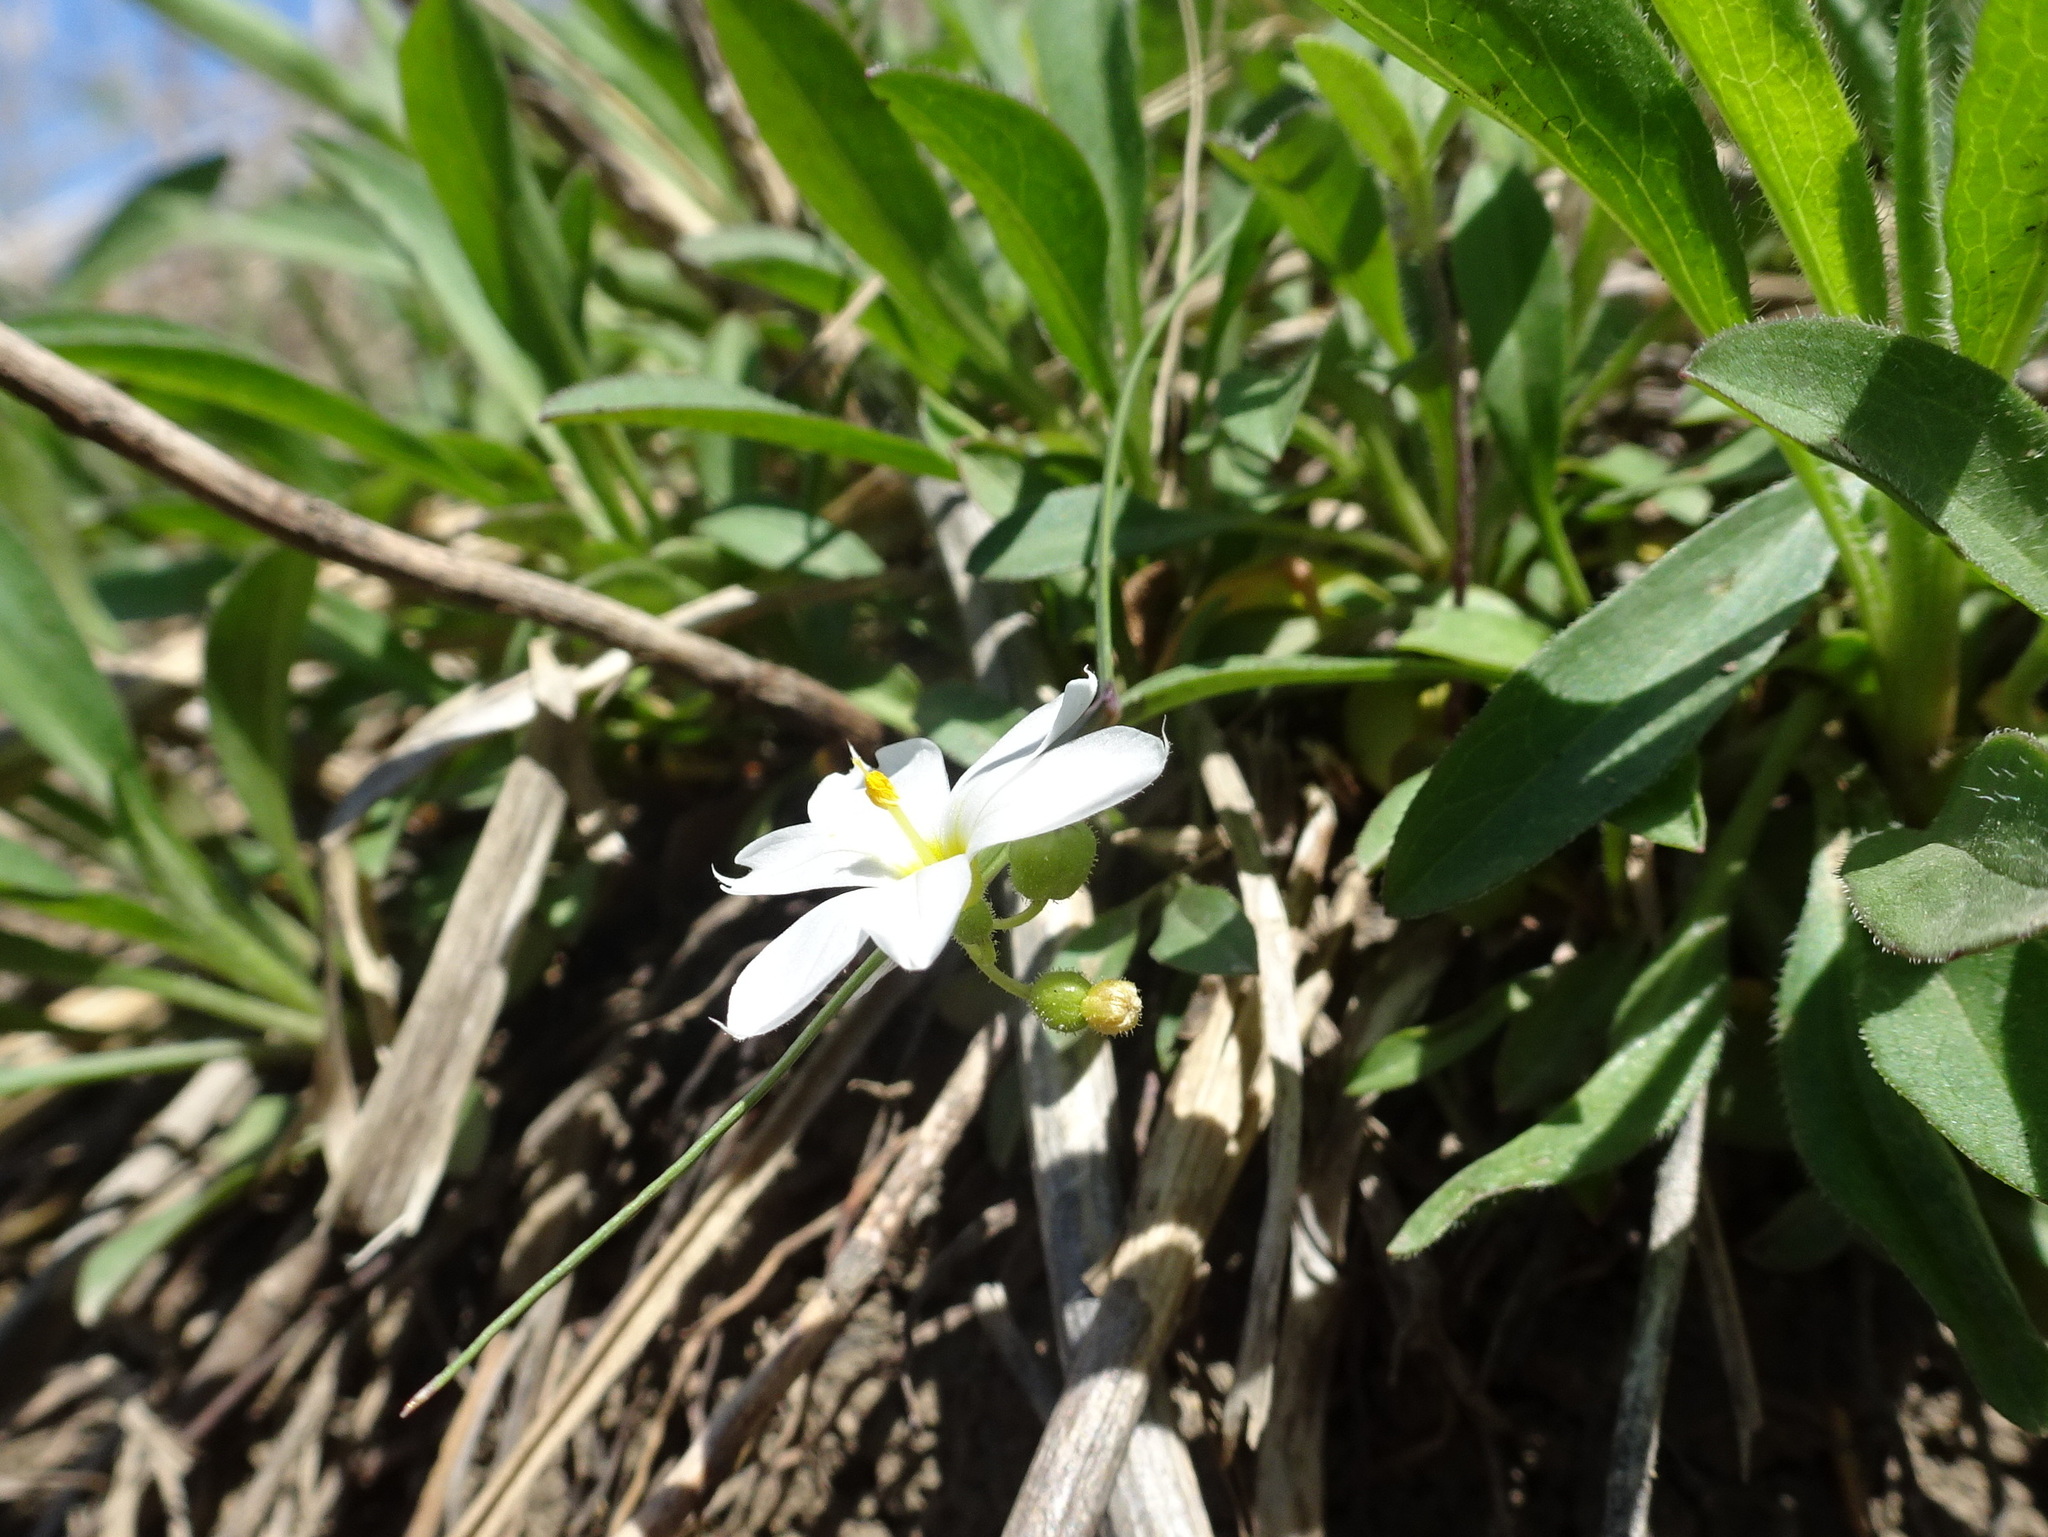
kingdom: Plantae
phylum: Tracheophyta
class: Liliopsida
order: Asparagales
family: Iridaceae
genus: Sisyrinchium
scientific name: Sisyrinchium campestre
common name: Prairie blue-eyed-grass
